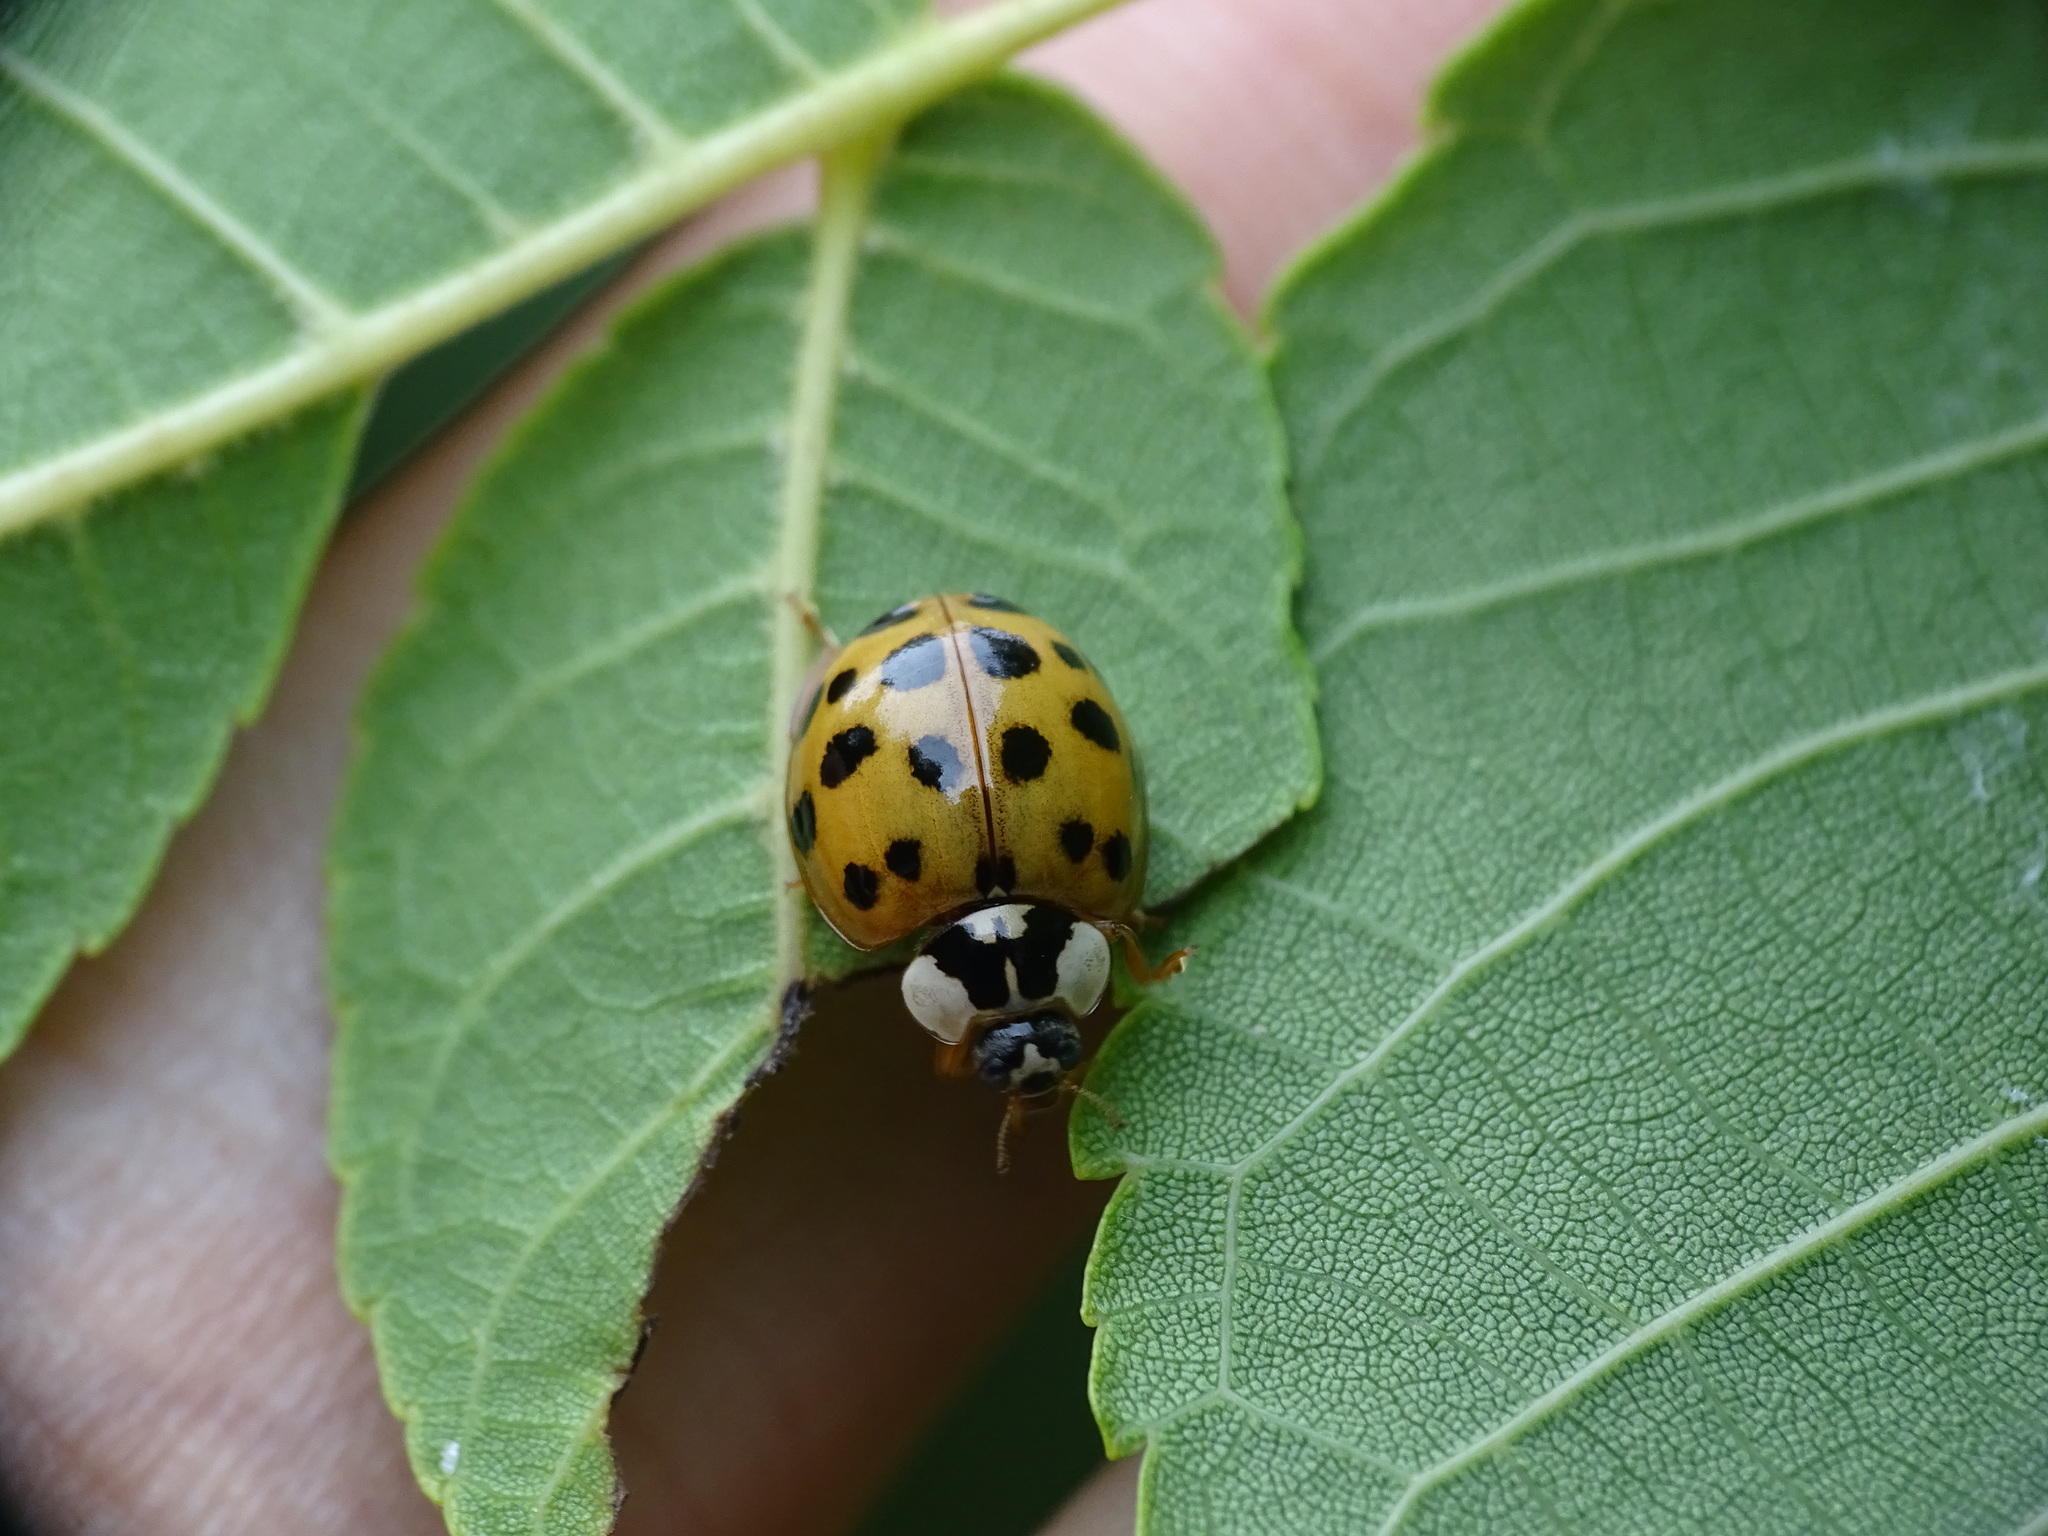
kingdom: Animalia
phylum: Arthropoda
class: Insecta
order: Coleoptera
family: Coccinellidae
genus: Harmonia
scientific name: Harmonia axyridis
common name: Harlequin ladybird
